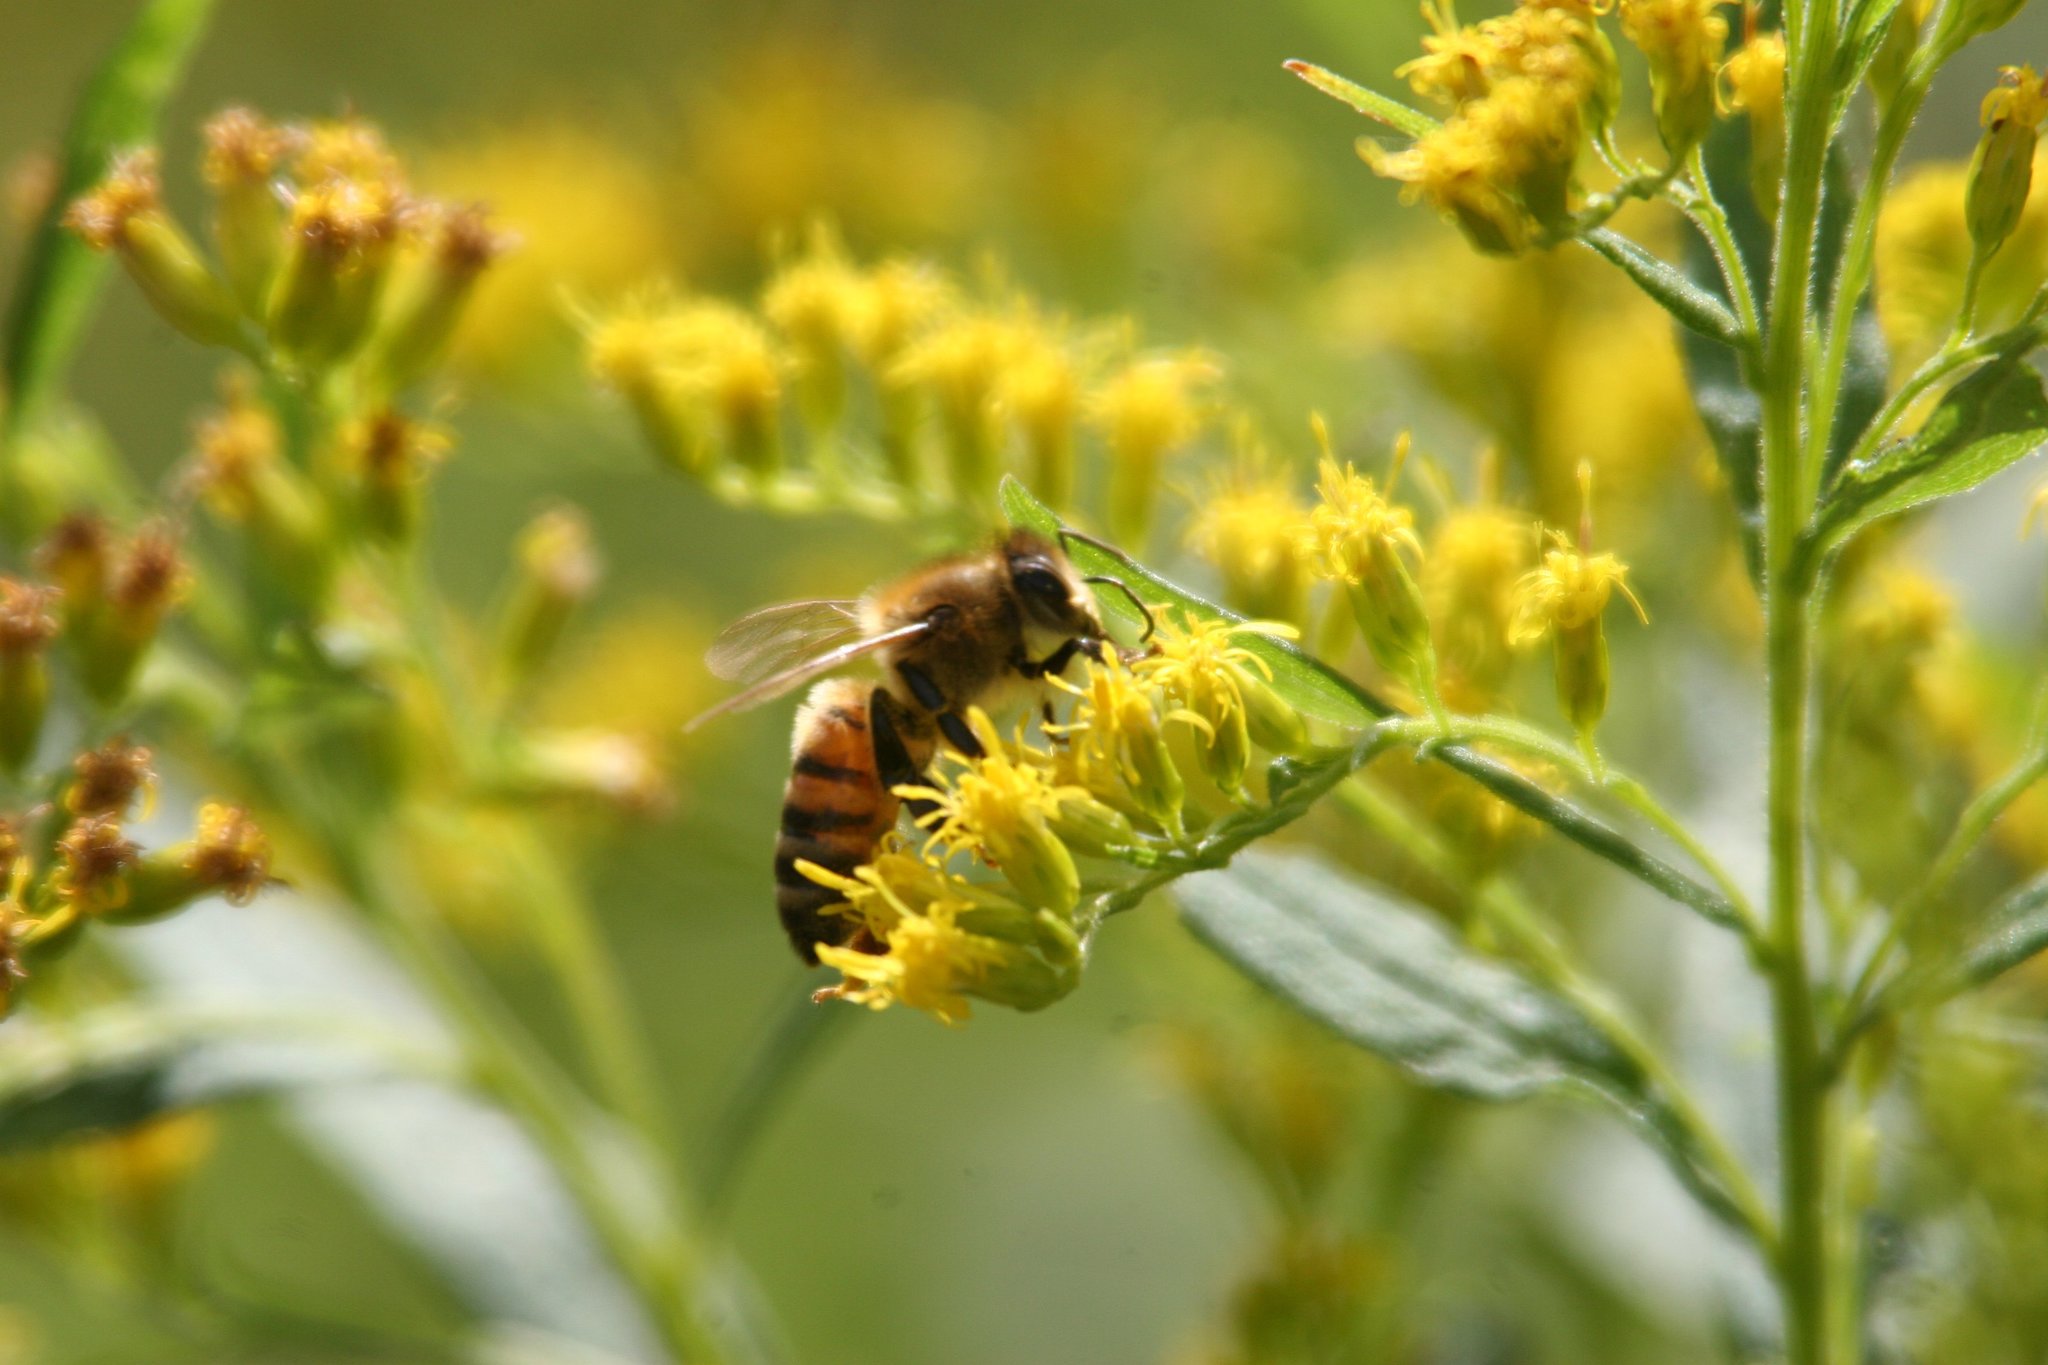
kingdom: Animalia
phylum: Arthropoda
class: Insecta
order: Hymenoptera
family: Apidae
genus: Apis
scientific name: Apis mellifera
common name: Honey bee
